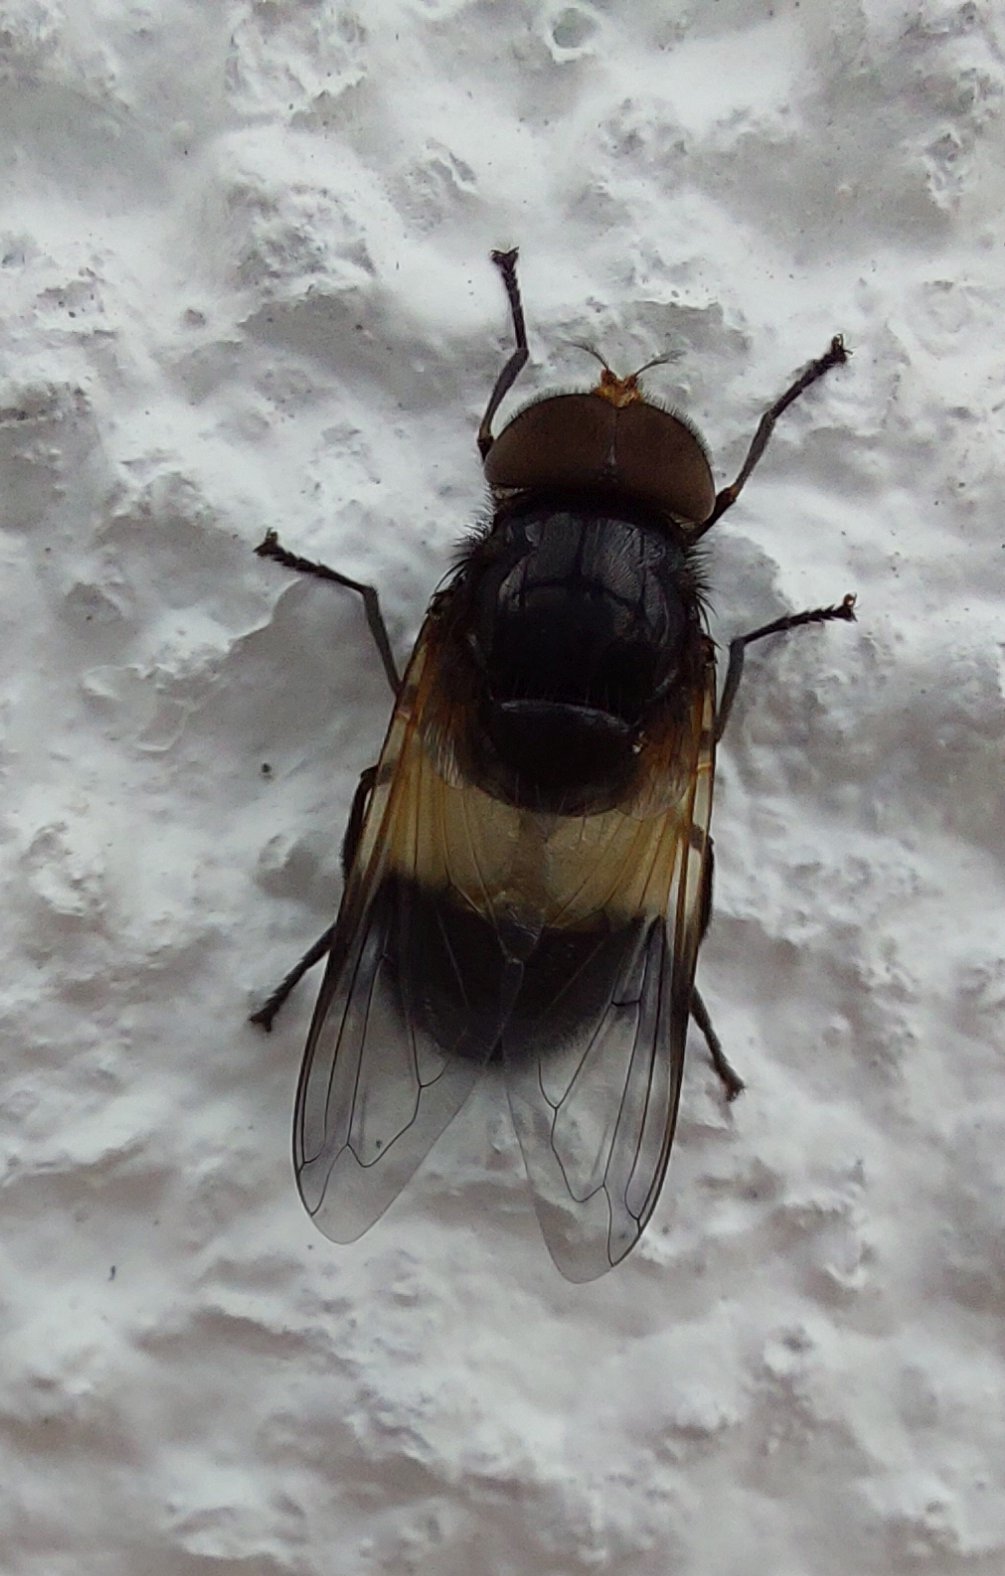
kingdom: Animalia
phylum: Arthropoda
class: Insecta
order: Diptera
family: Syrphidae
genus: Volucella
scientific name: Volucella pellucens
